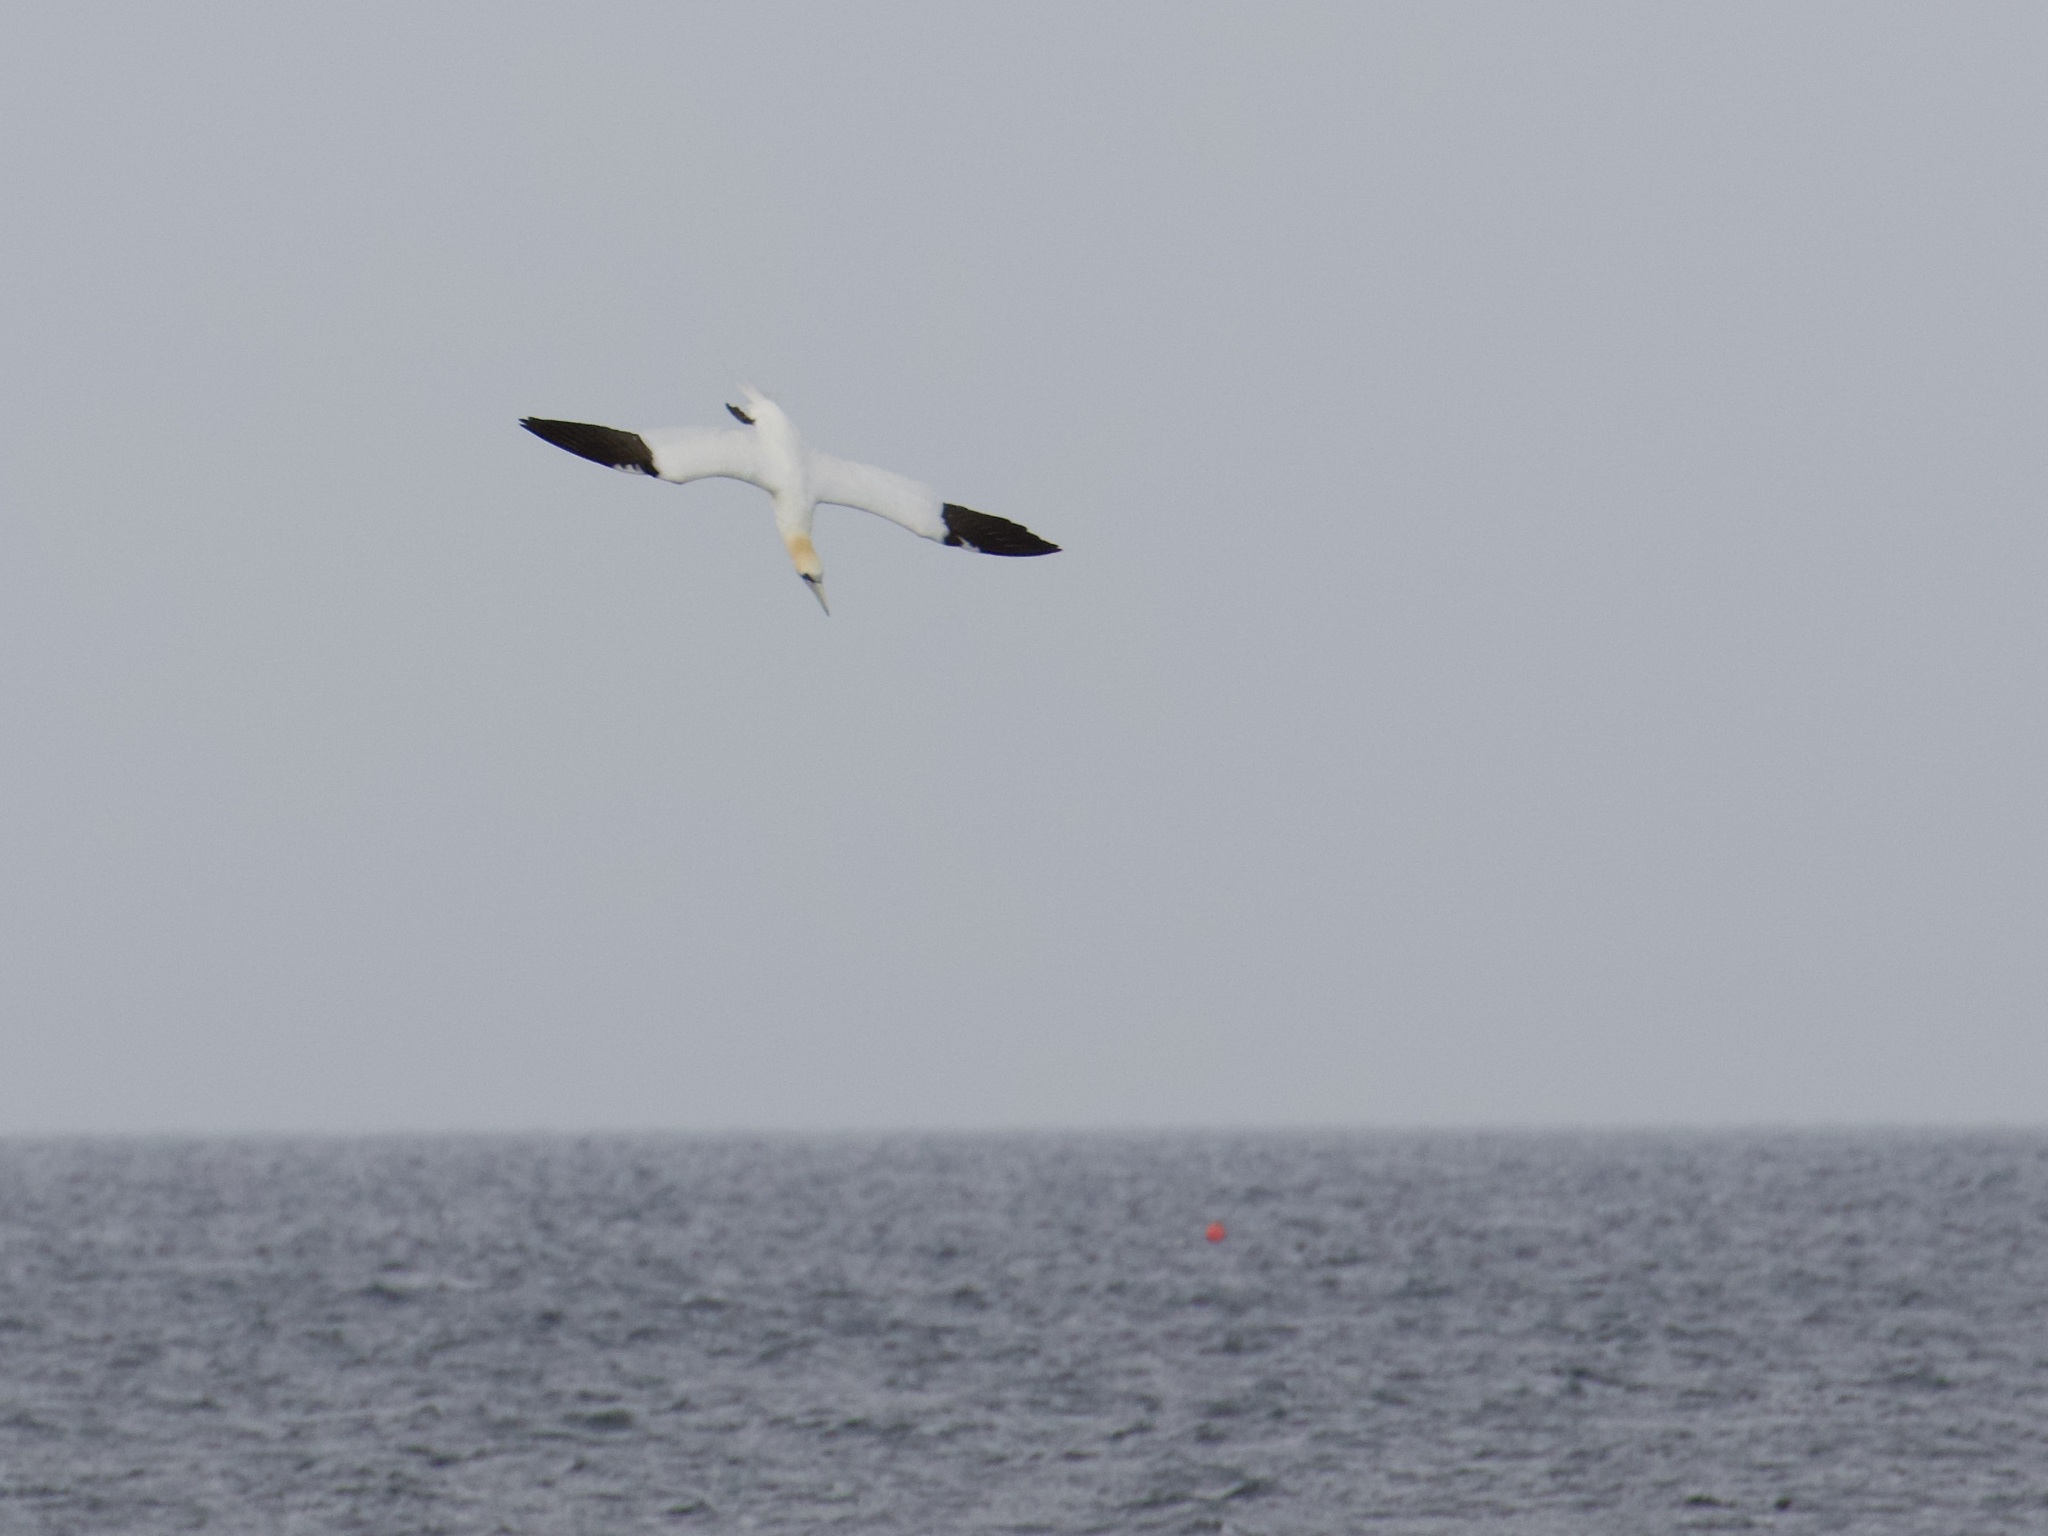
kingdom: Animalia
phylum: Chordata
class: Aves
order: Suliformes
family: Sulidae
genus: Morus
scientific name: Morus bassanus
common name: Northern gannet
